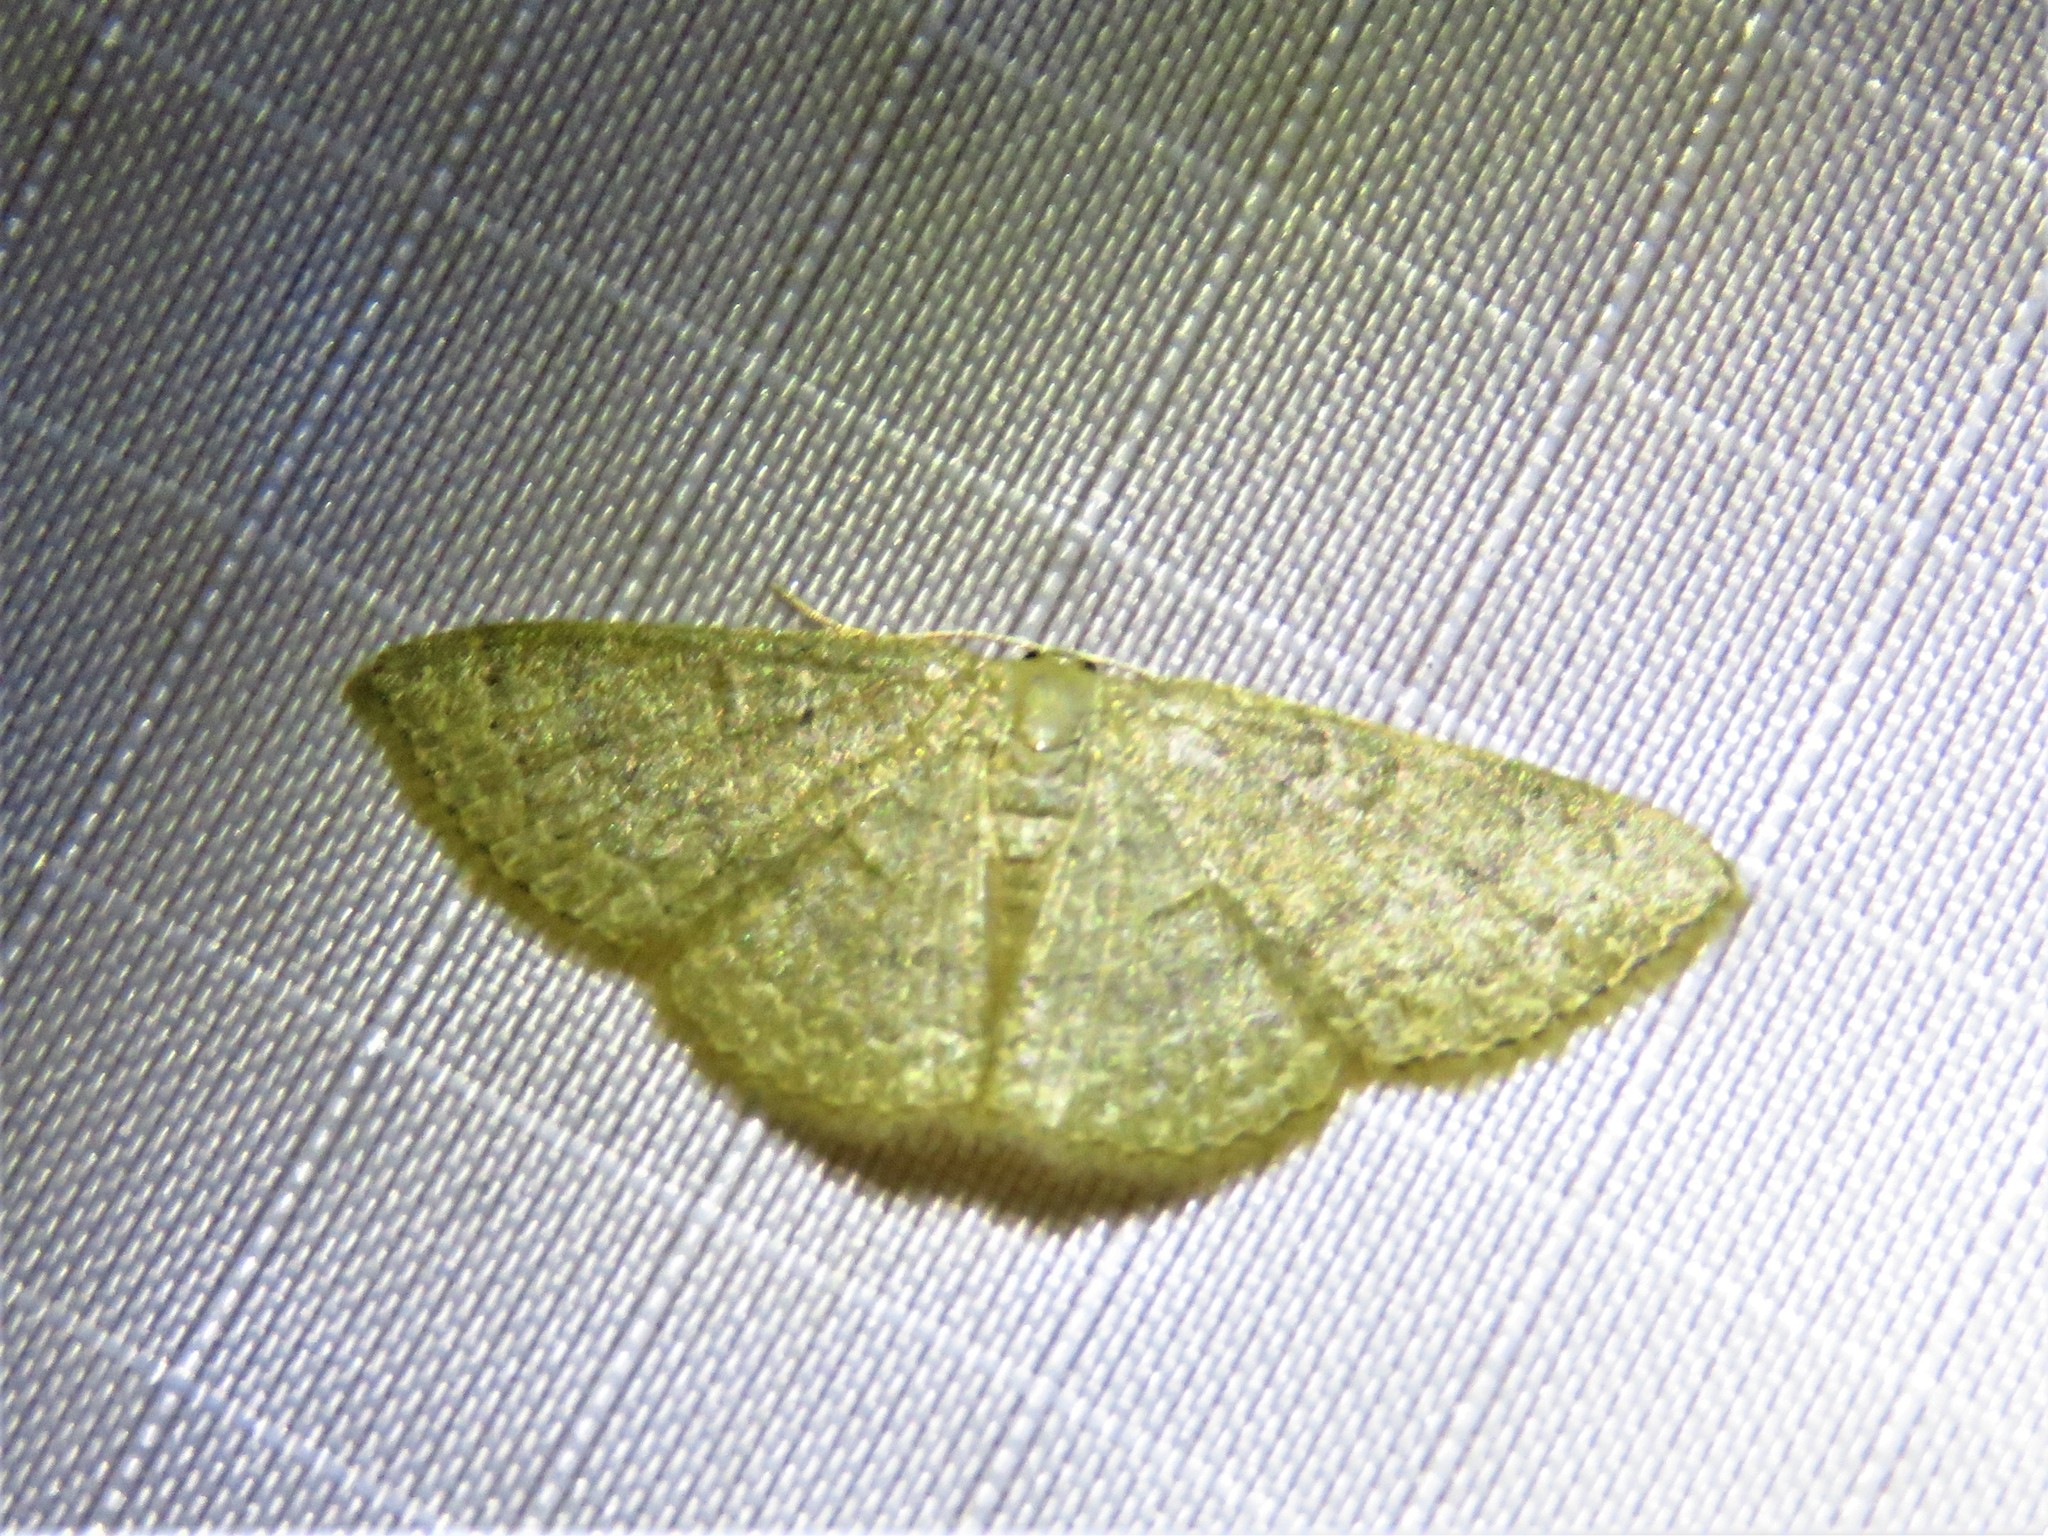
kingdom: Animalia
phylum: Arthropoda
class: Insecta
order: Lepidoptera
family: Geometridae
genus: Pleuroprucha
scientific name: Pleuroprucha insulsaria
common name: Common tan wave
